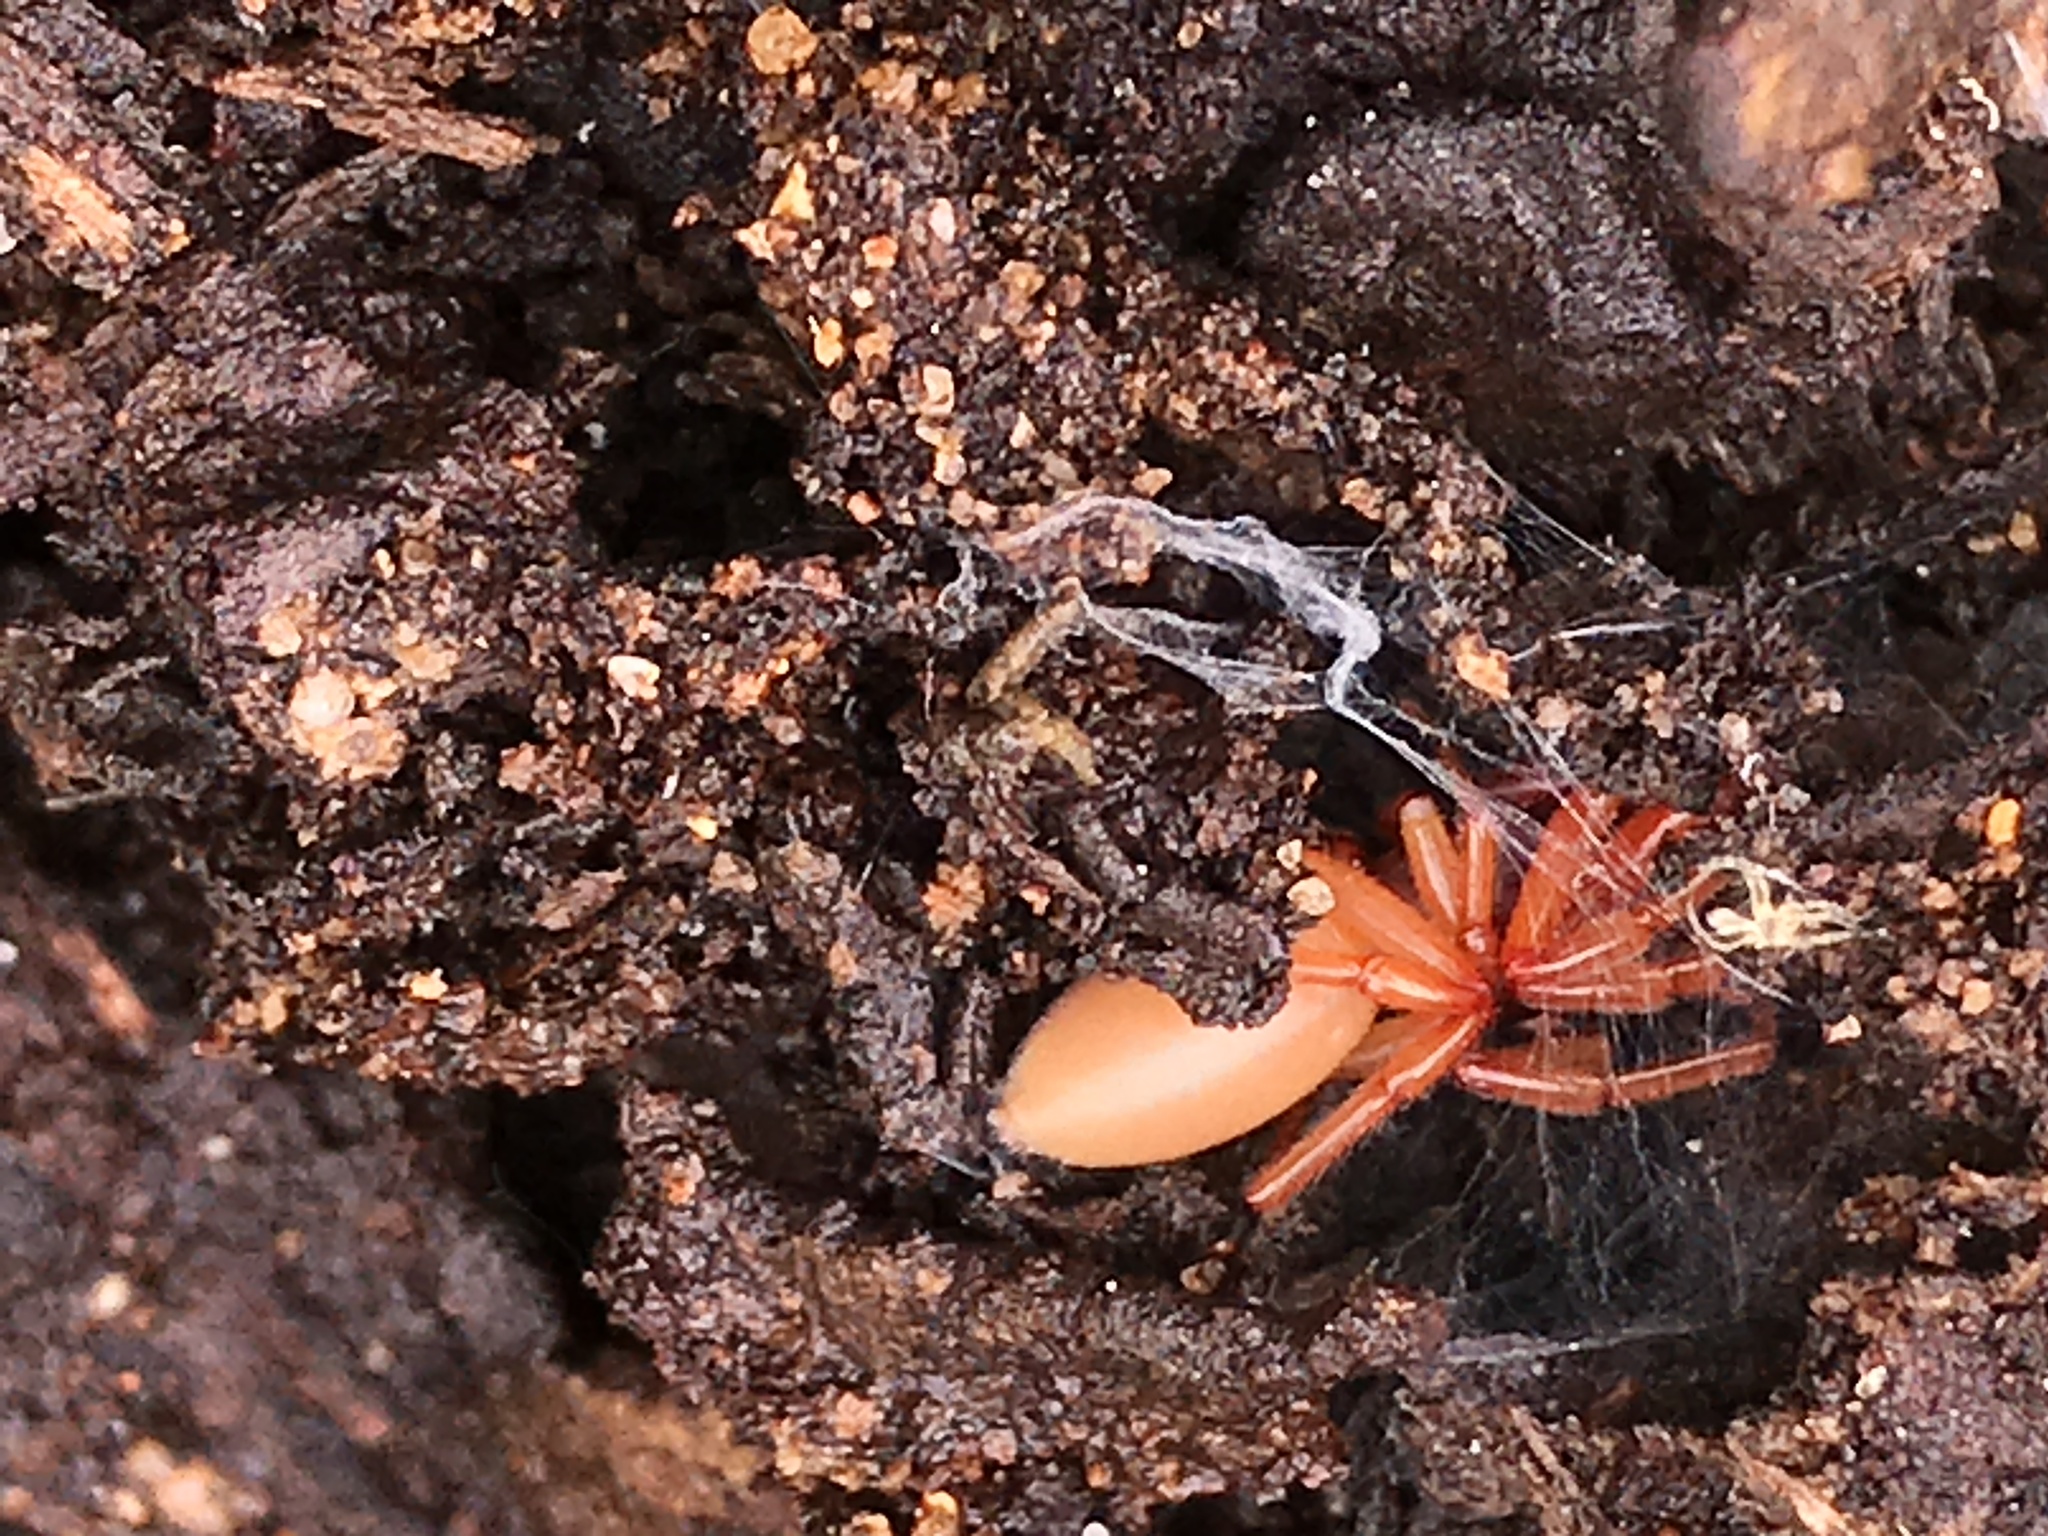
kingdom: Animalia
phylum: Arthropoda
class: Arachnida
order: Araneae
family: Dysderidae
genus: Dysdera
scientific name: Dysdera crocata
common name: Woodlouse spider
